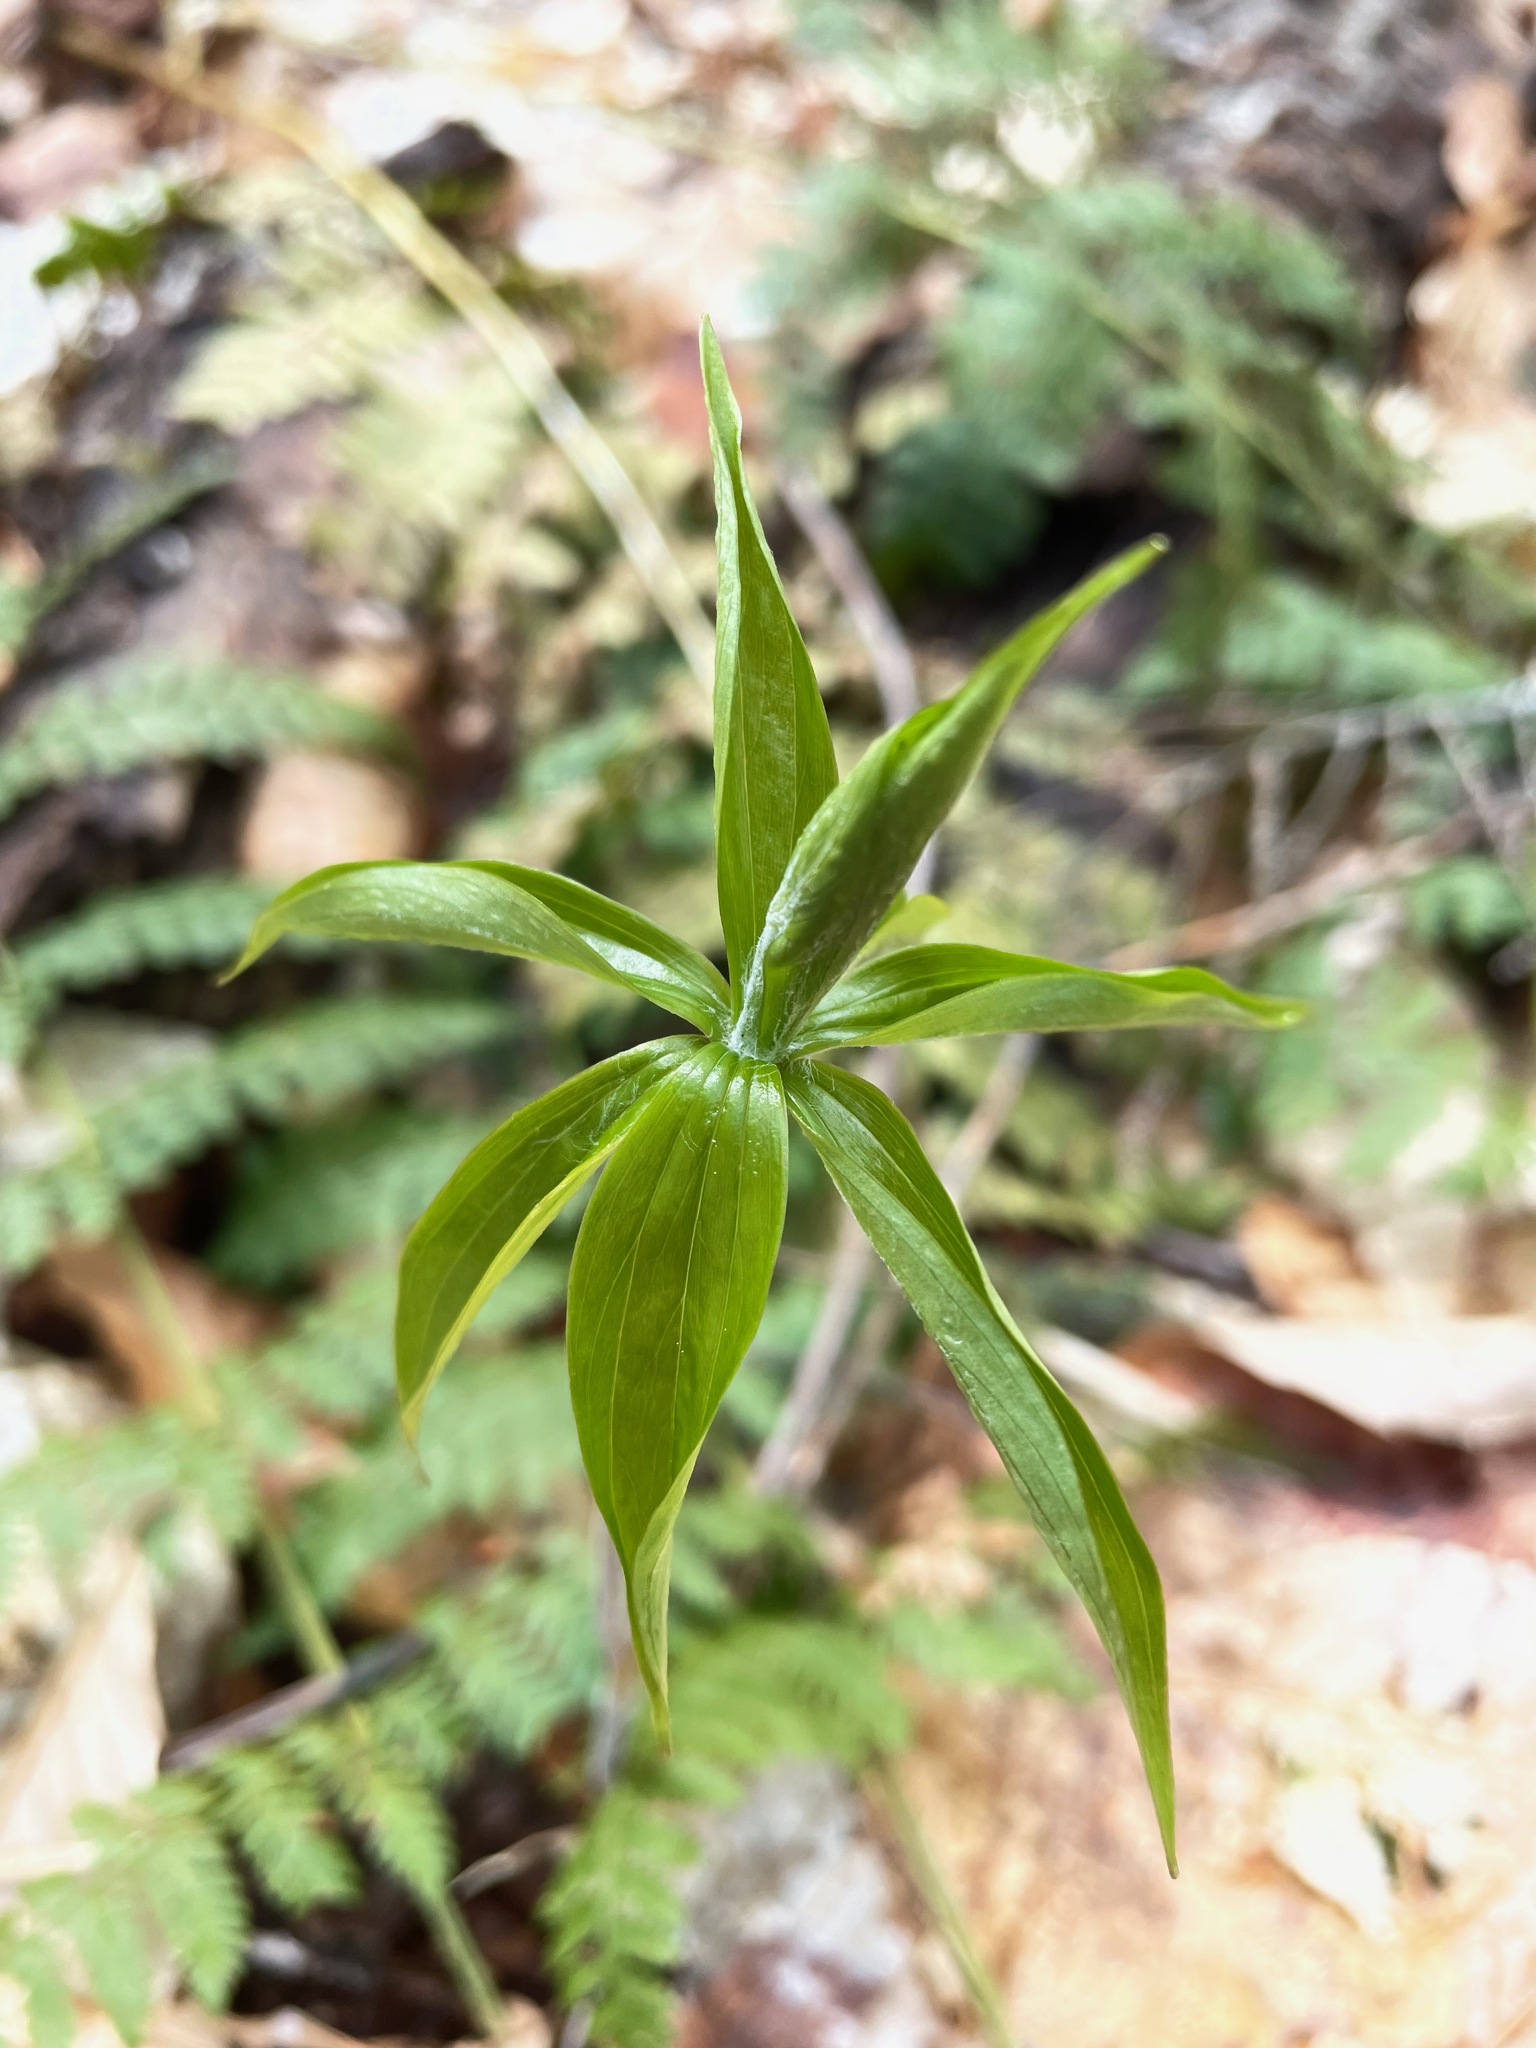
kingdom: Plantae
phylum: Tracheophyta
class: Liliopsida
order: Liliales
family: Liliaceae
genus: Medeola
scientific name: Medeola virginiana
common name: Indian cucumber-root
